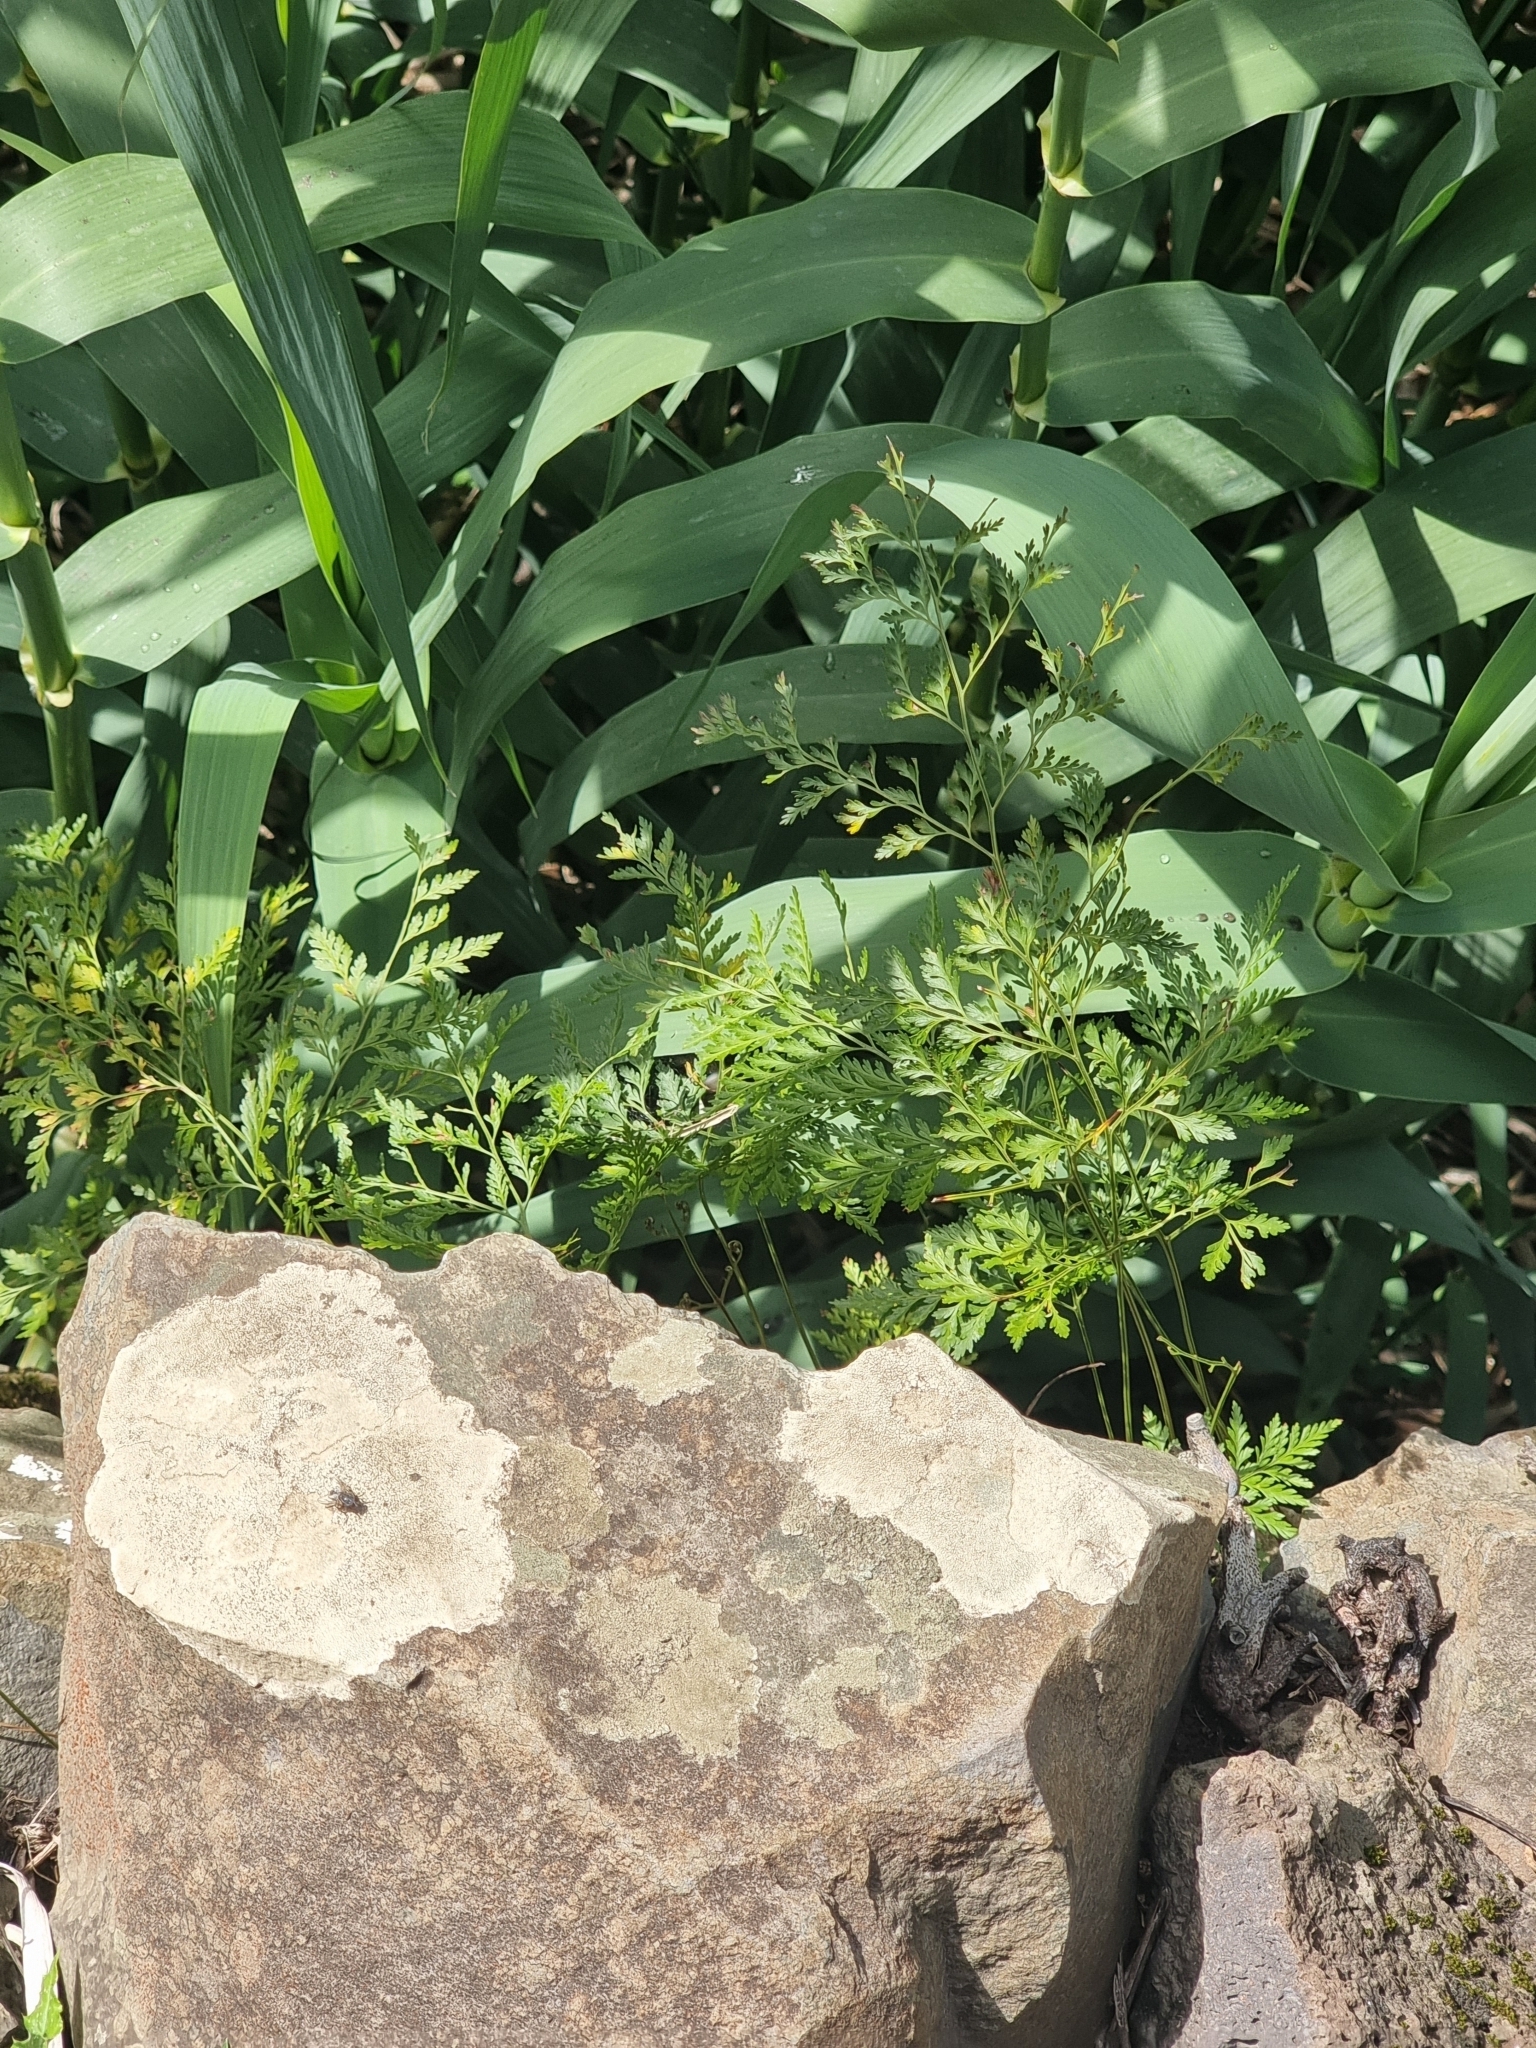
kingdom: Plantae
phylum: Tracheophyta
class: Polypodiopsida
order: Polypodiales
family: Davalliaceae
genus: Davallia
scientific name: Davallia canariensis
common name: Hare's-foot fern
